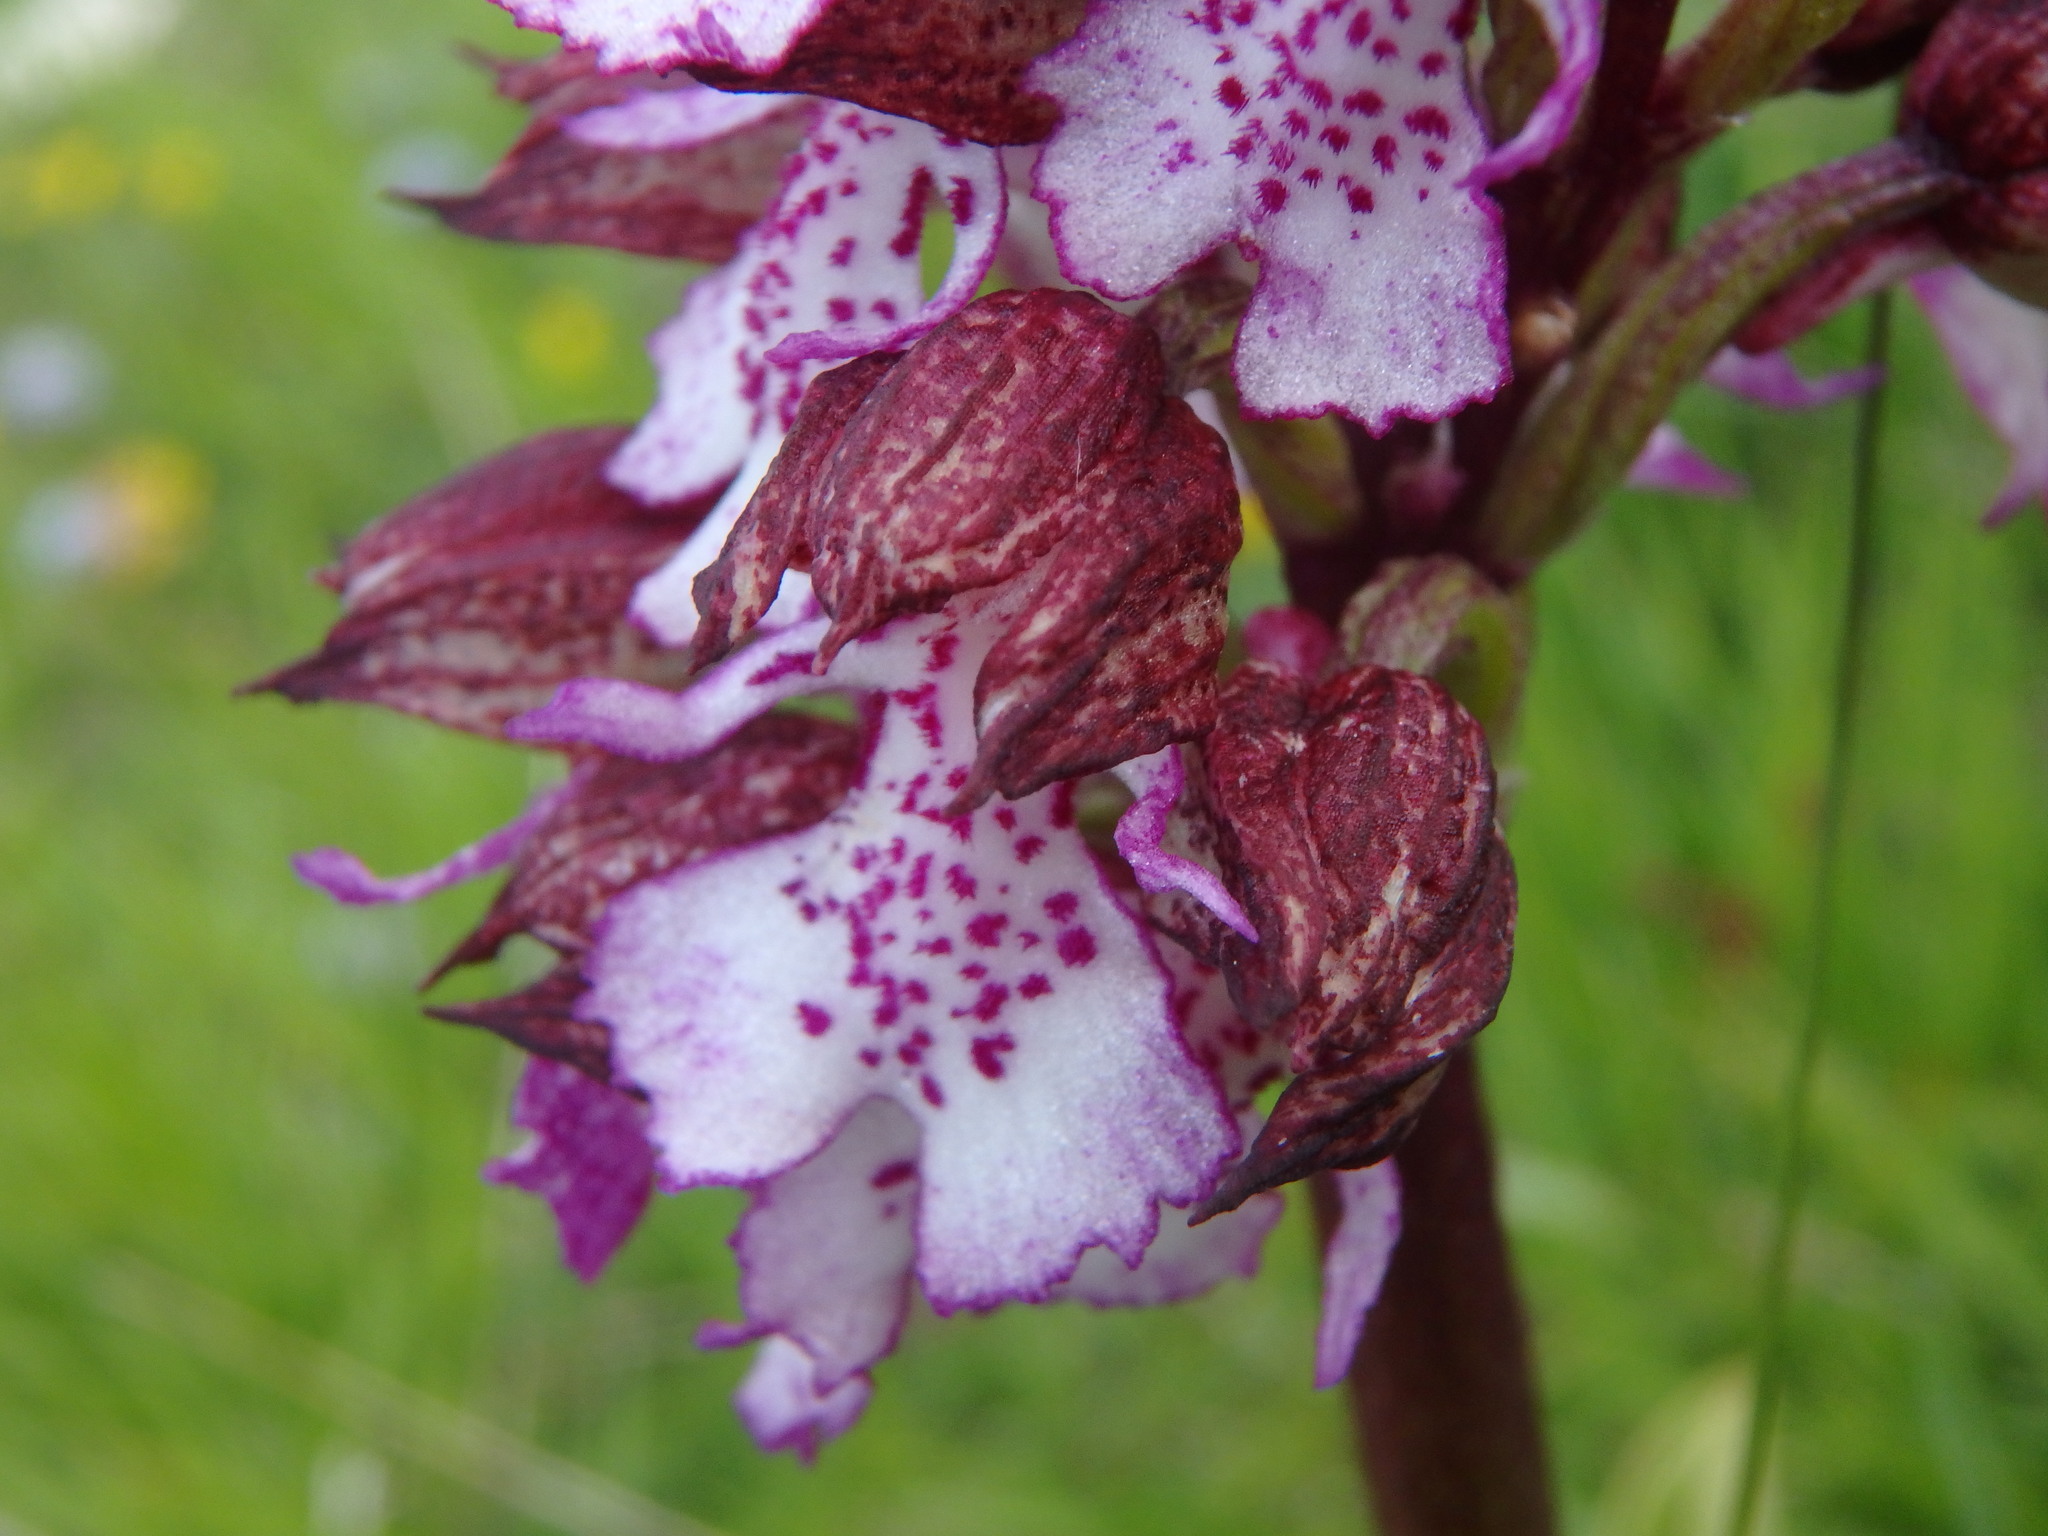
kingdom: Plantae
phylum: Tracheophyta
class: Liliopsida
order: Asparagales
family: Orchidaceae
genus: Orchis
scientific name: Orchis purpurea
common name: Lady orchid
